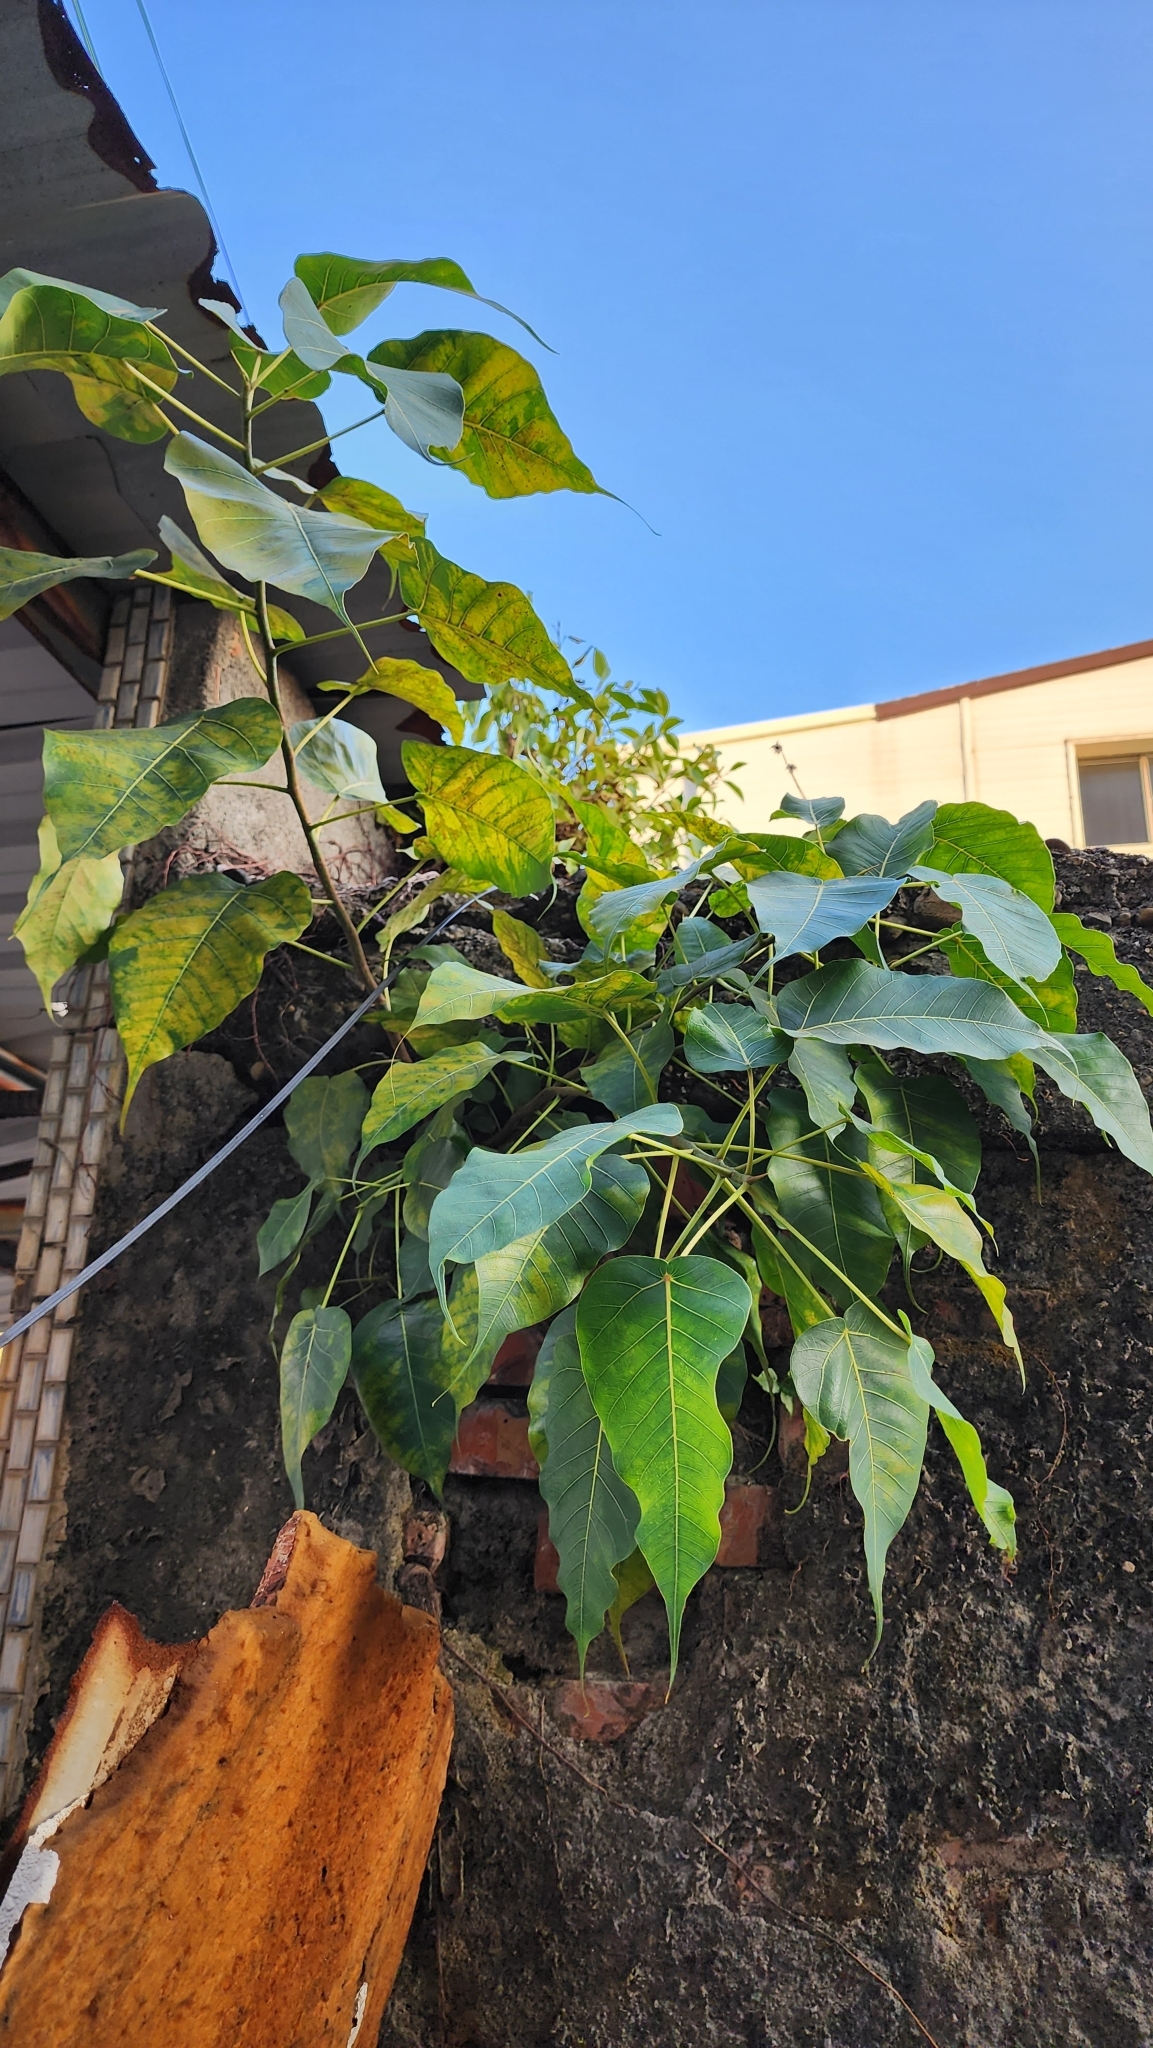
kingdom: Plantae
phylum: Tracheophyta
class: Magnoliopsida
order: Rosales
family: Moraceae
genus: Ficus
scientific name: Ficus religiosa
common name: Bodhi tree
